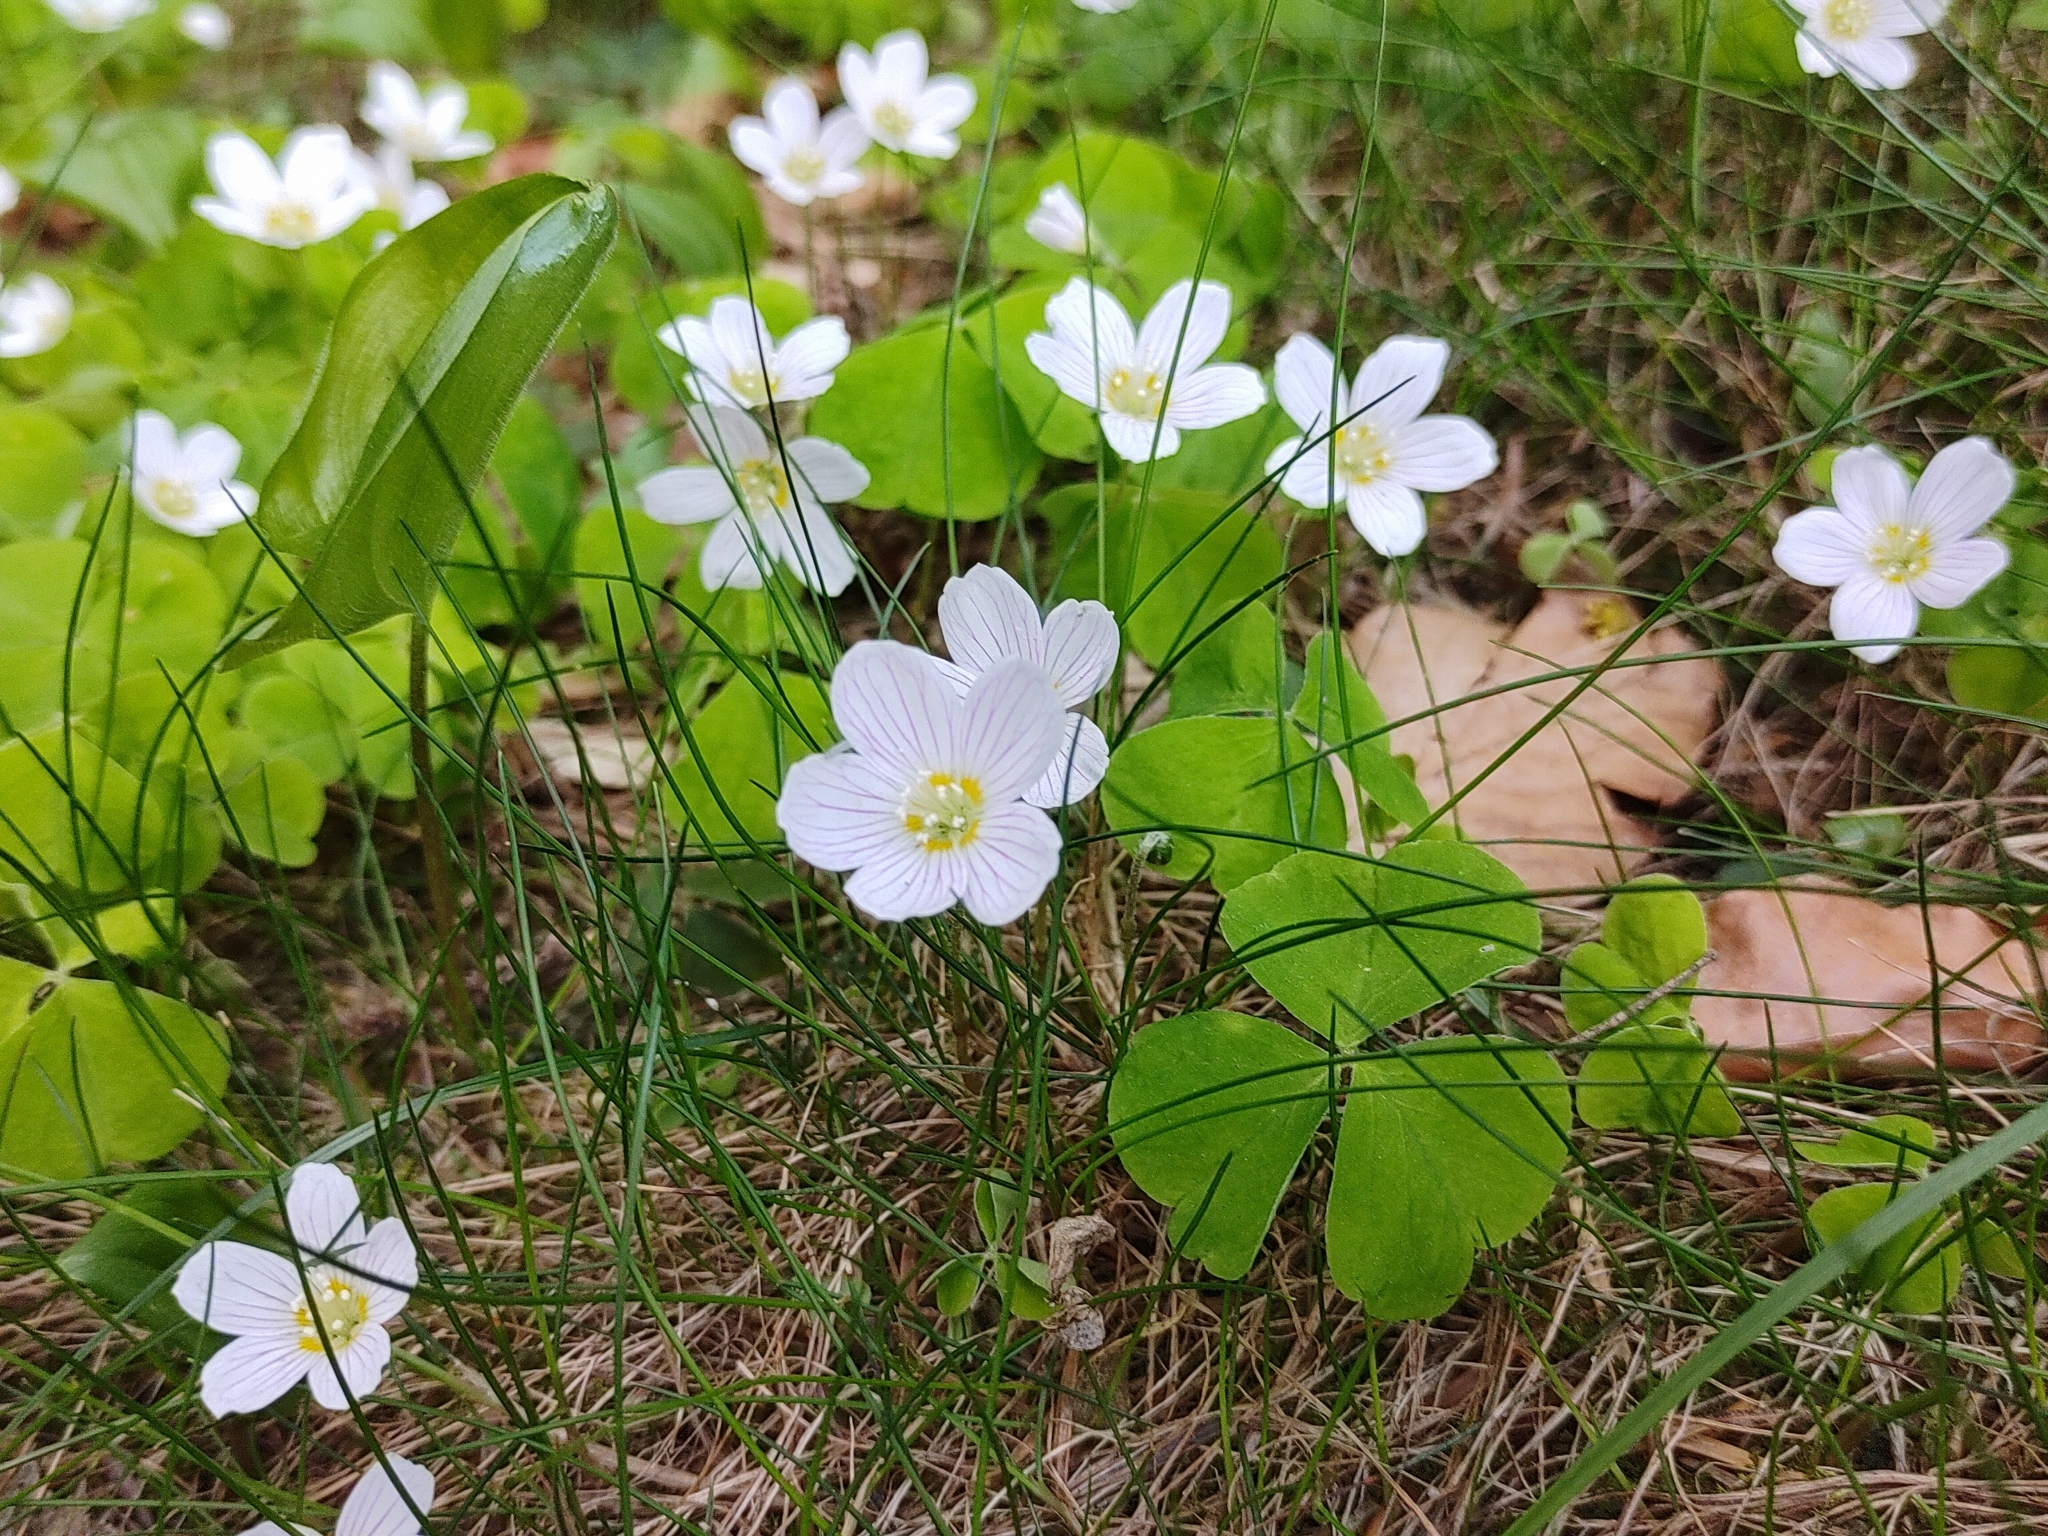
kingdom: Plantae
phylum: Tracheophyta
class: Magnoliopsida
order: Oxalidales
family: Oxalidaceae
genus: Oxalis
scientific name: Oxalis acetosella
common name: Wood-sorrel
